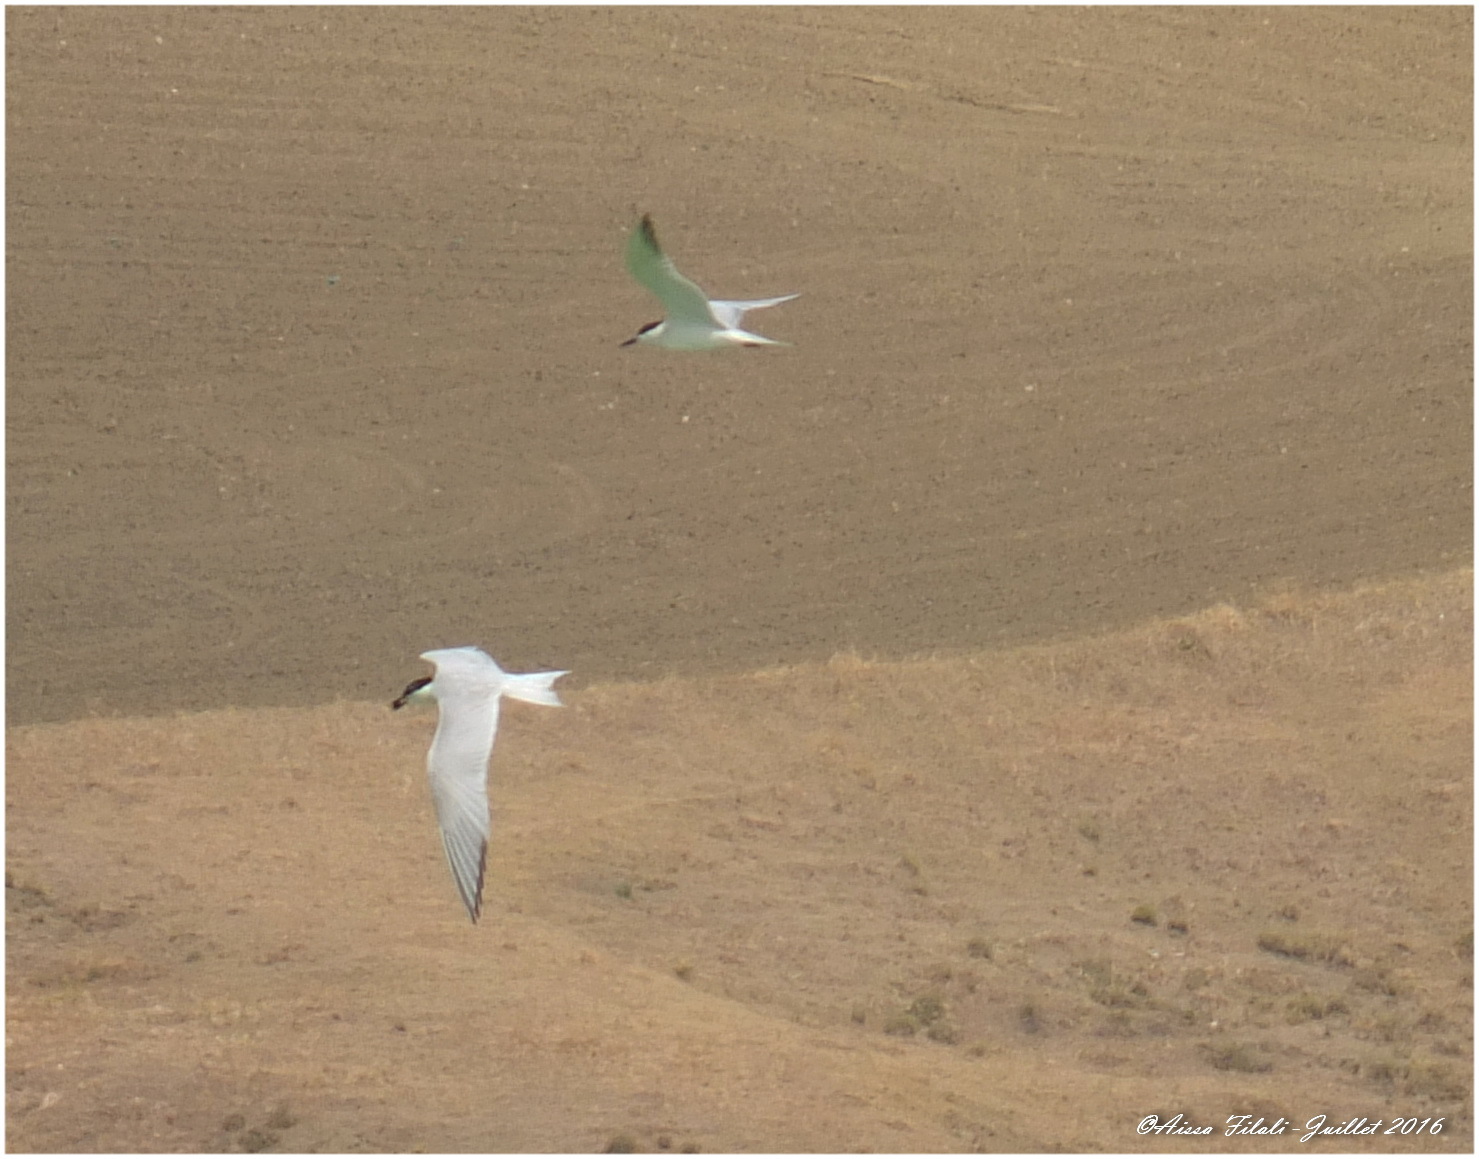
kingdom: Animalia
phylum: Chordata
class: Aves
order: Charadriiformes
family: Laridae
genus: Gelochelidon
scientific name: Gelochelidon nilotica
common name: Gull-billed tern
